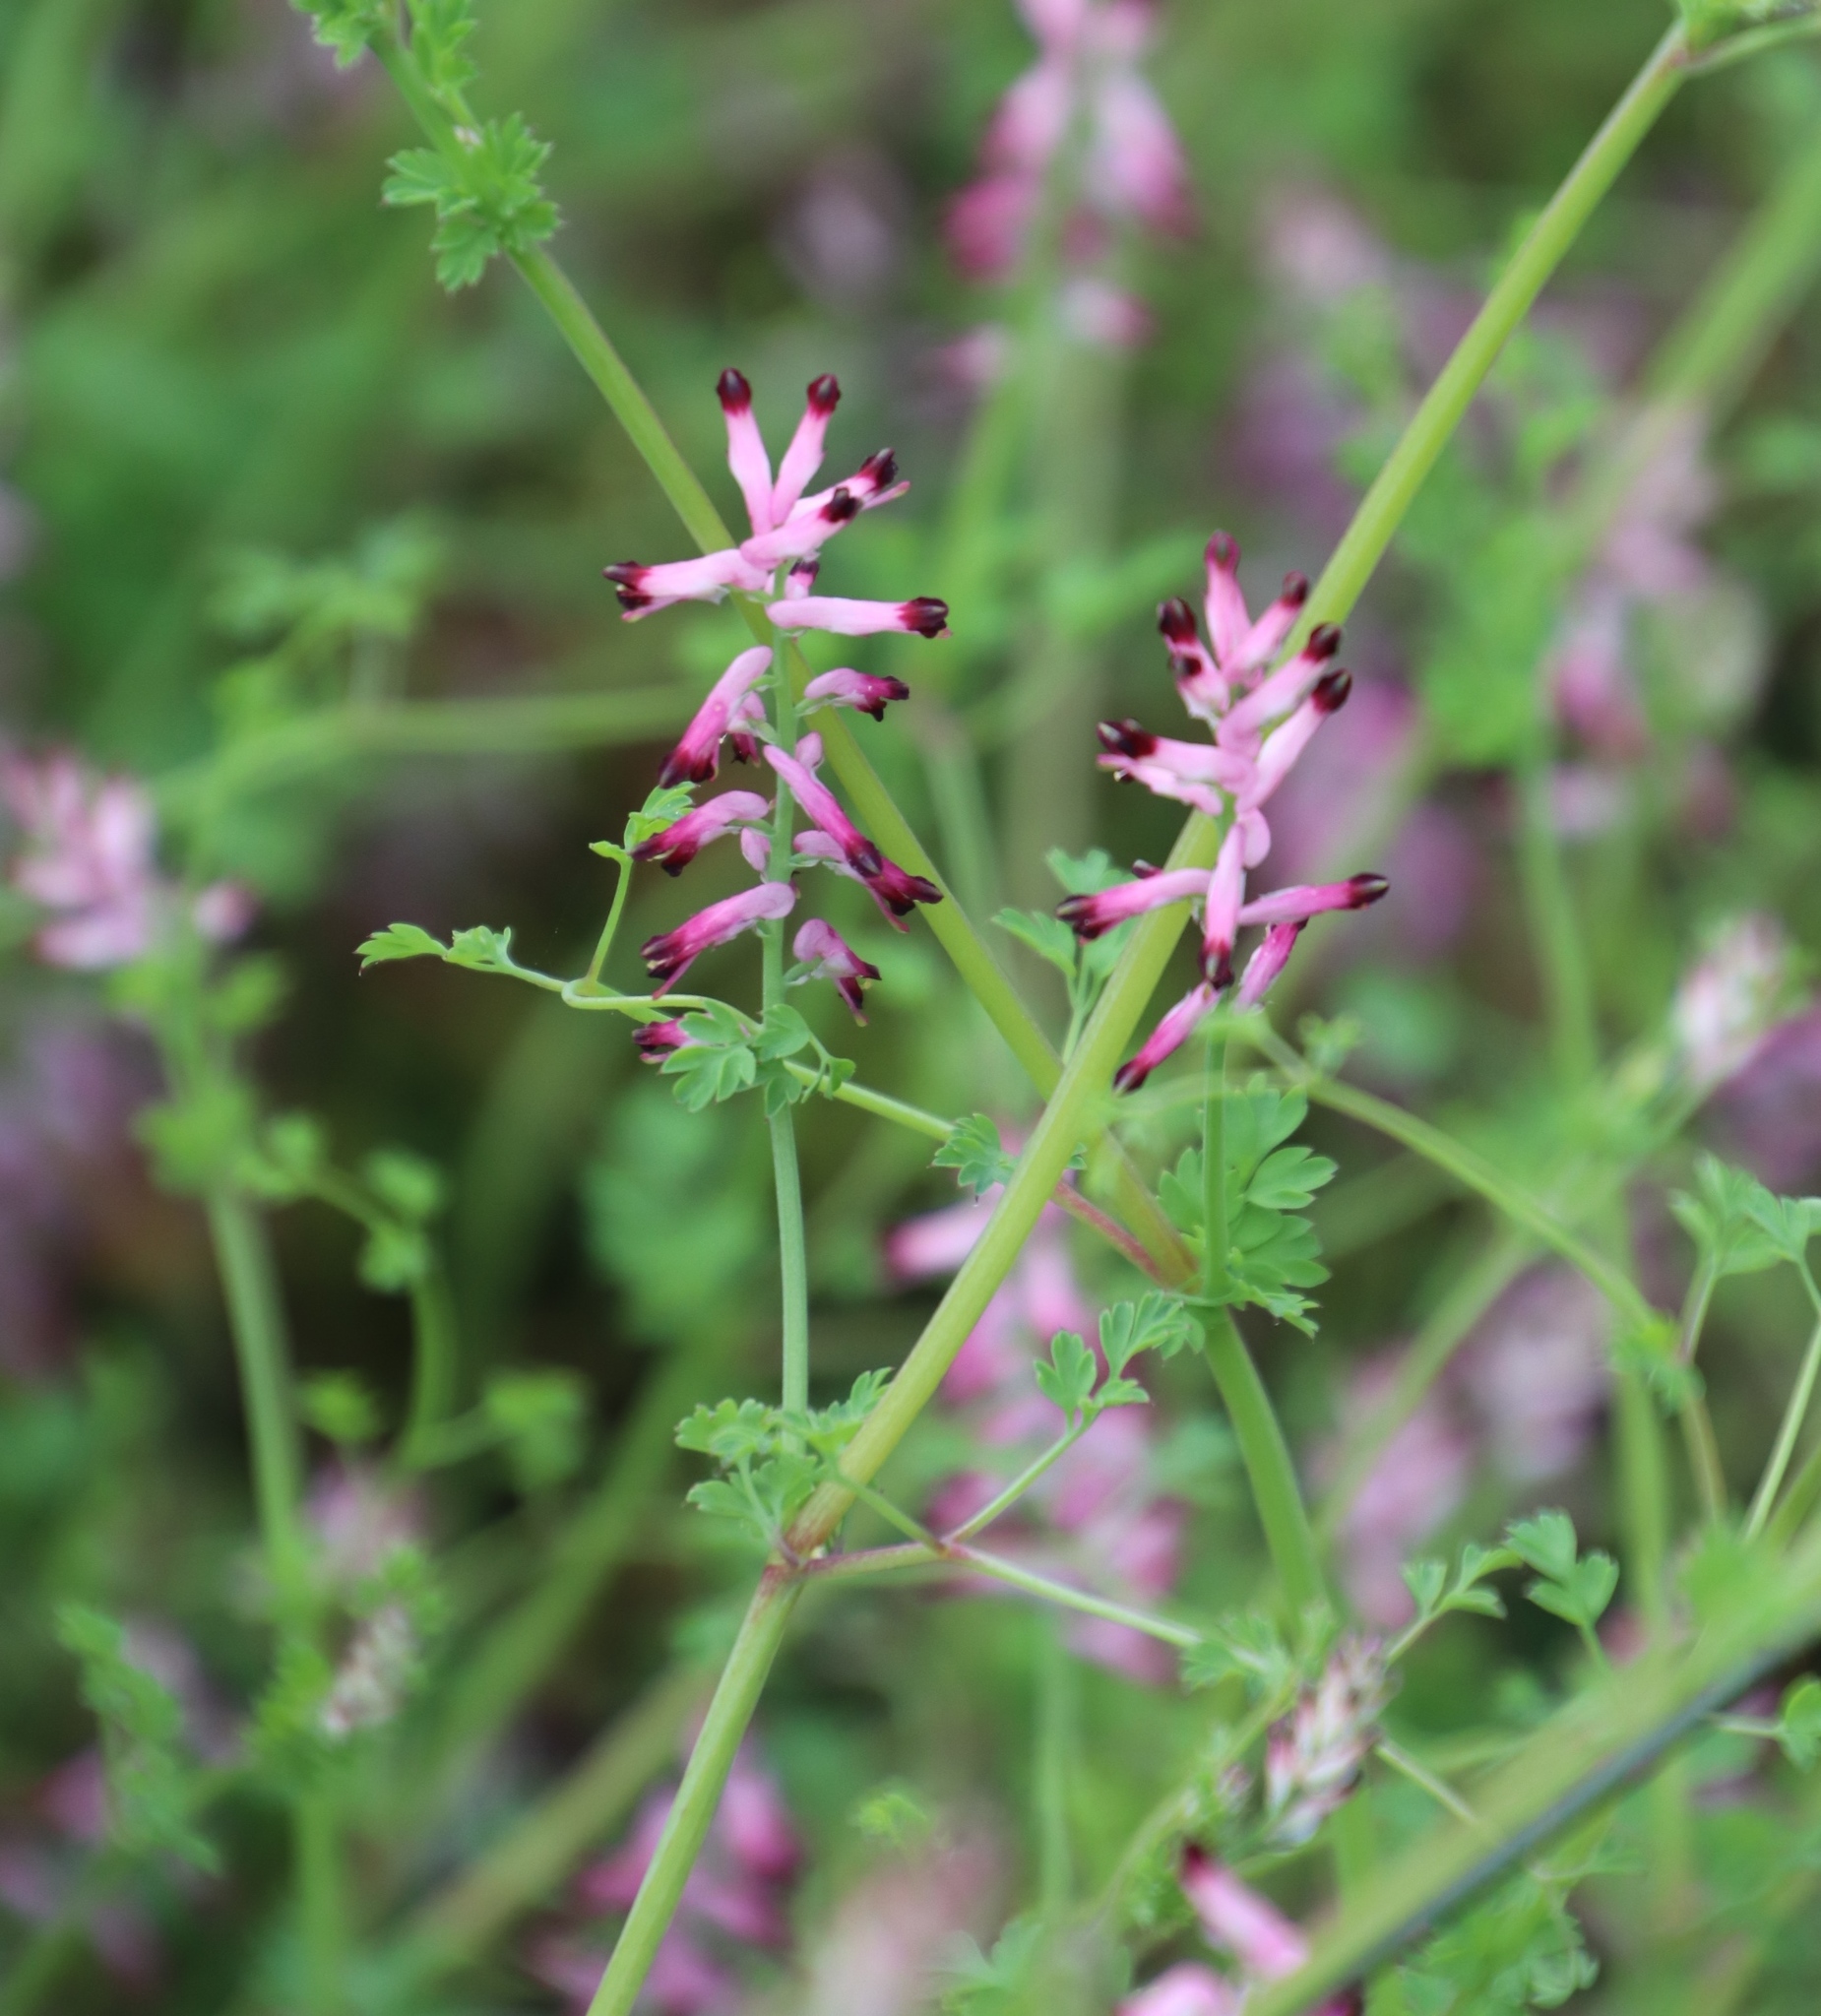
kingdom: Plantae
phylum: Tracheophyta
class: Magnoliopsida
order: Ranunculales
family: Papaveraceae
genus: Fumaria
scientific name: Fumaria muralis
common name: Common ramping-fumitory
